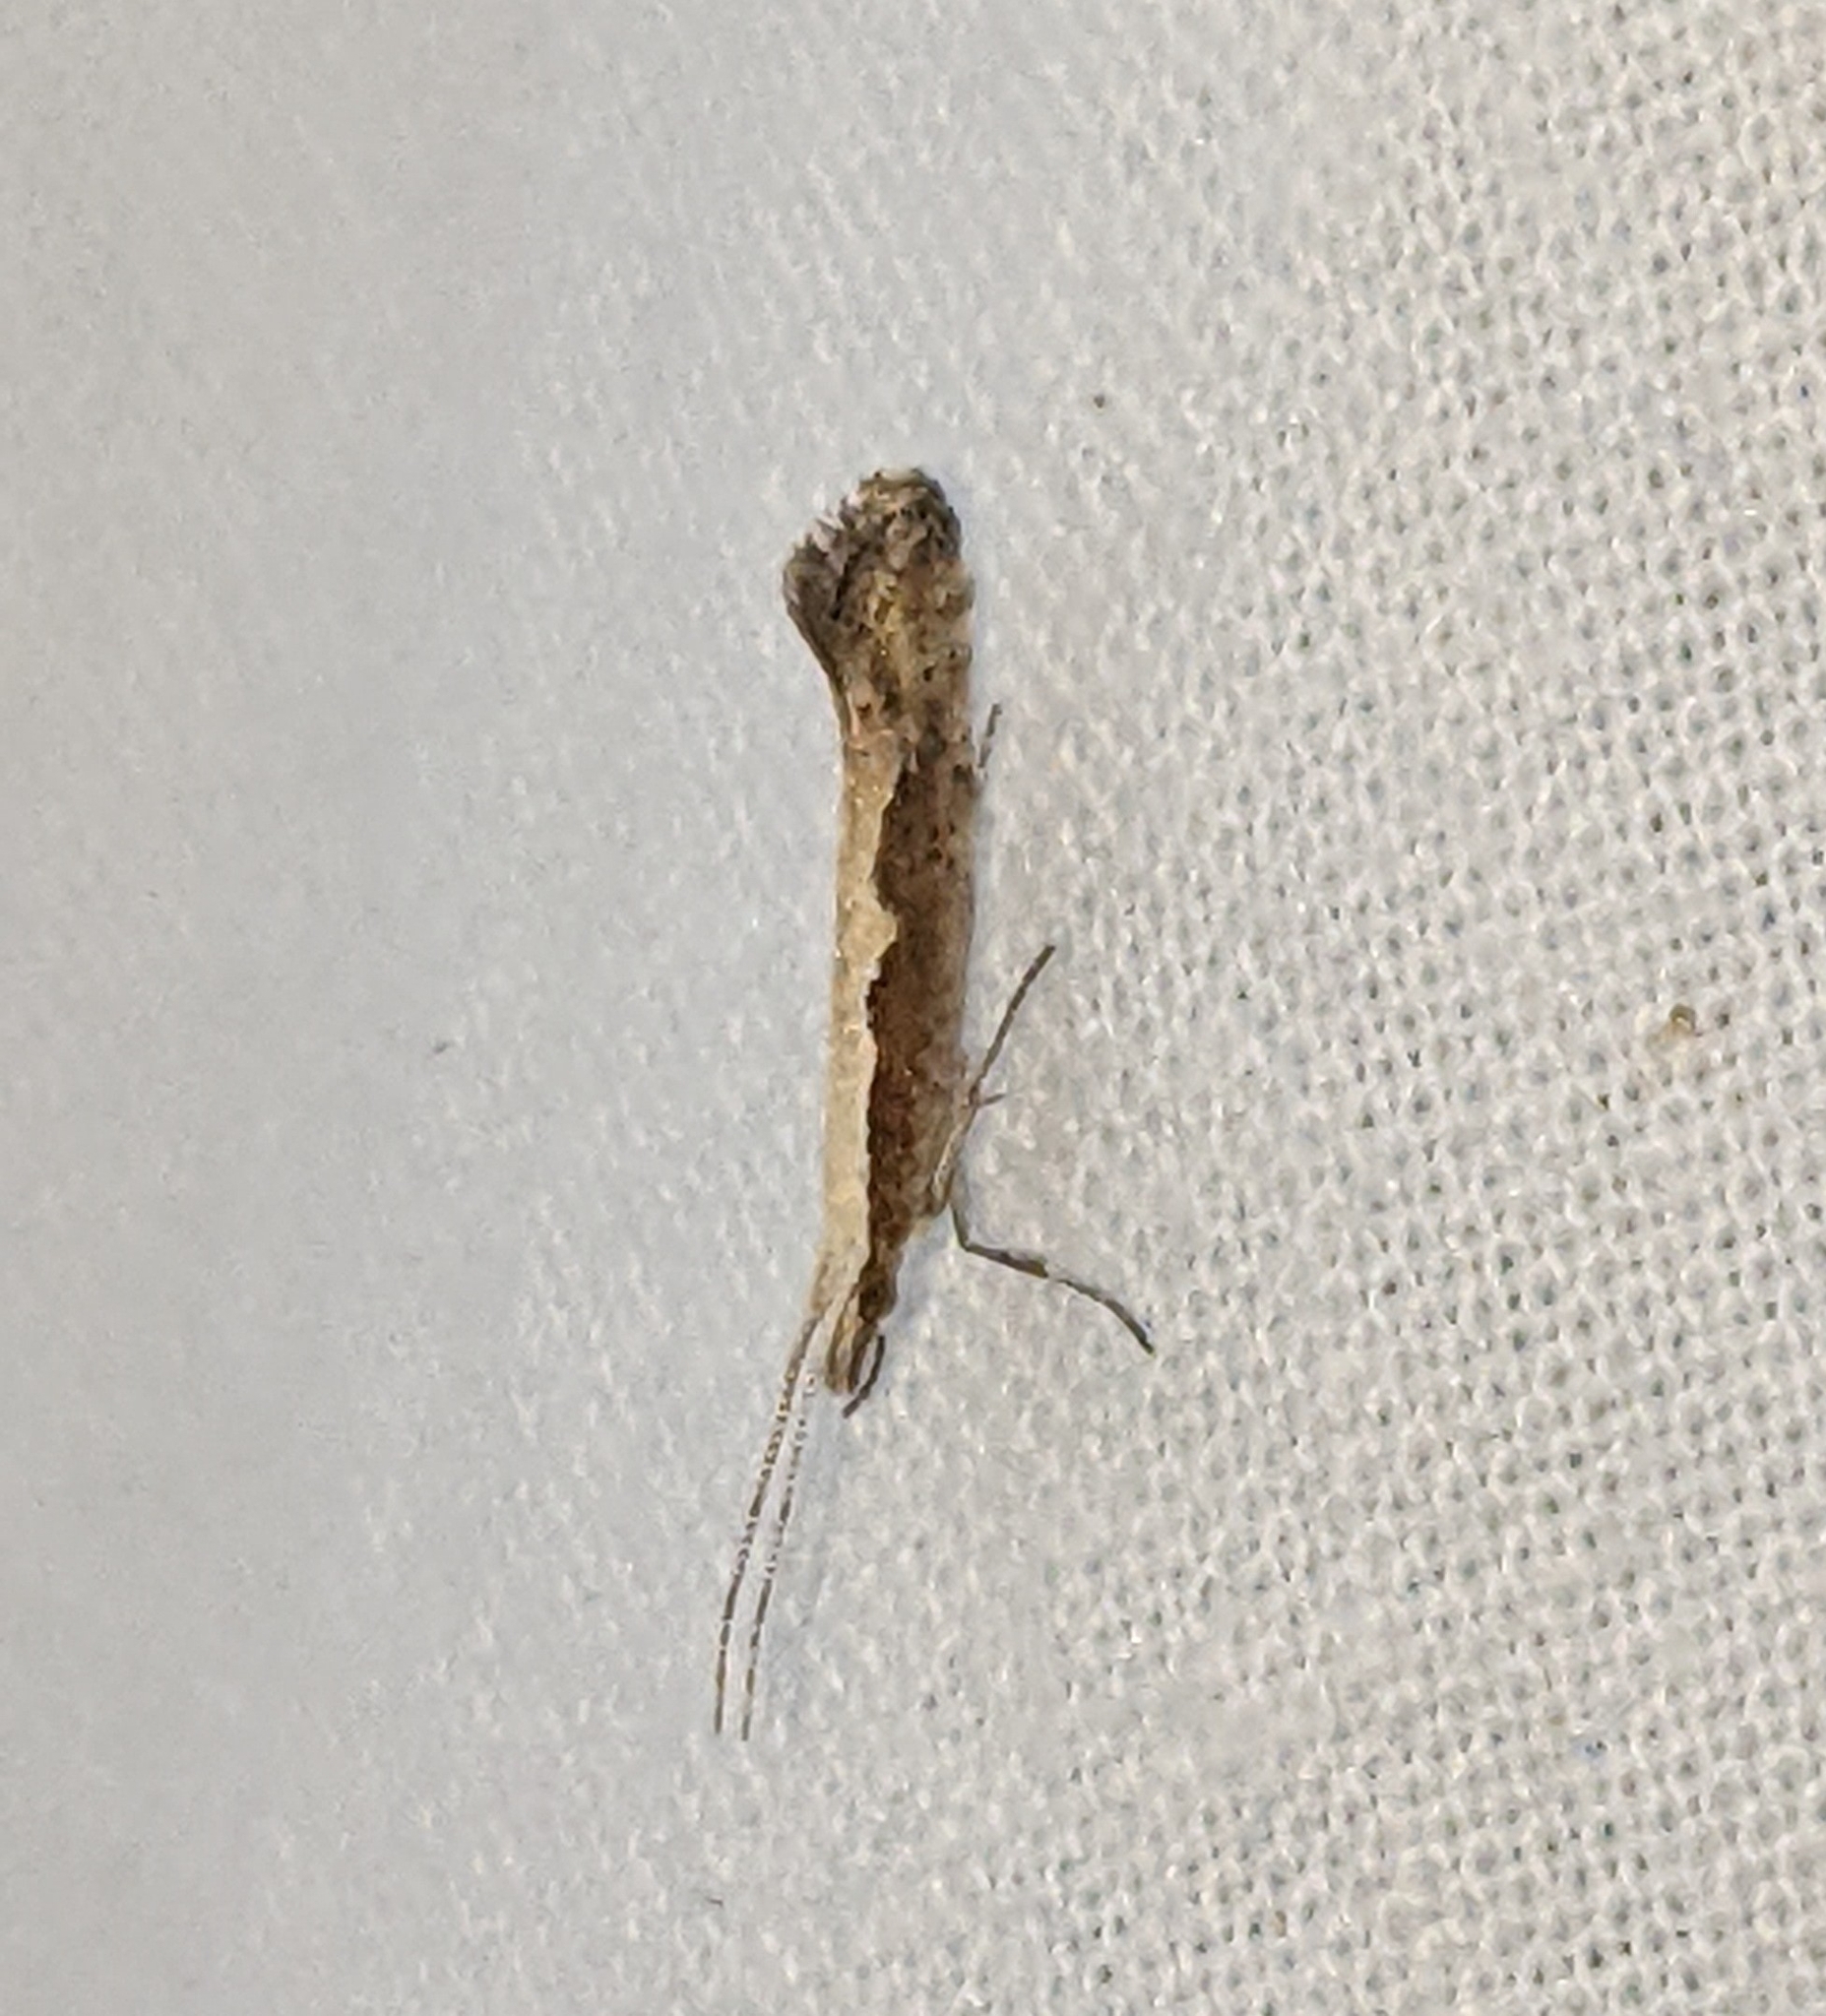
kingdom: Animalia
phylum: Arthropoda
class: Insecta
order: Lepidoptera
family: Plutellidae
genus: Plutella
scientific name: Plutella xylostella
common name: Diamond-back moth
